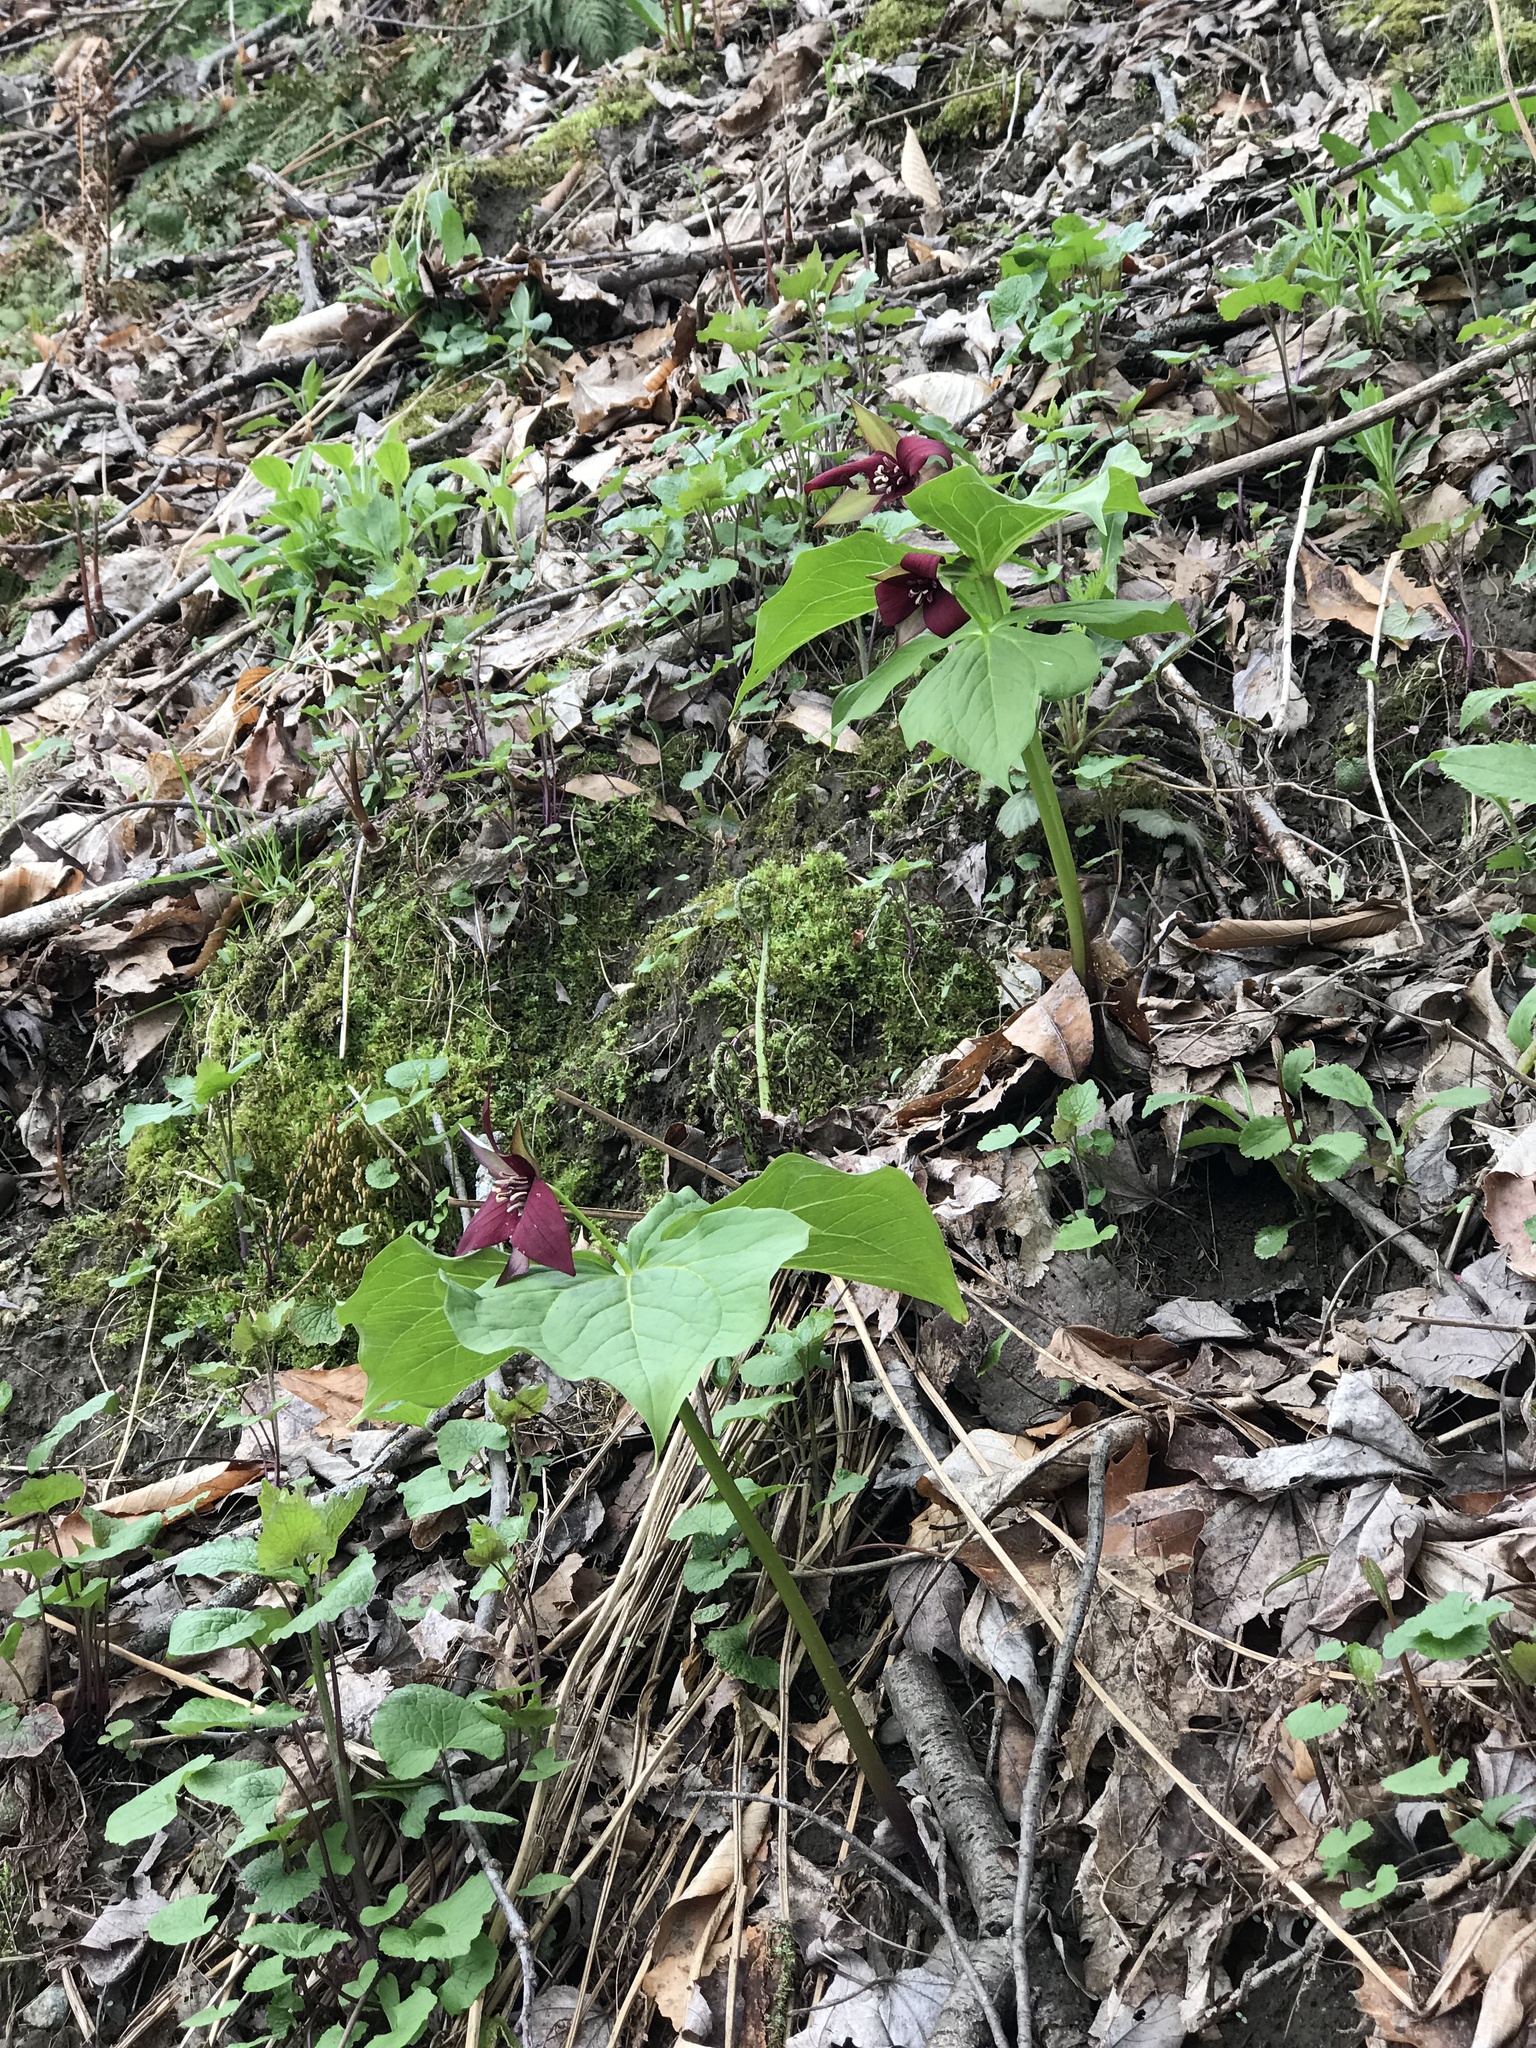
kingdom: Plantae
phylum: Tracheophyta
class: Liliopsida
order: Liliales
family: Melanthiaceae
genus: Trillium
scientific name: Trillium erectum
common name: Purple trillium
